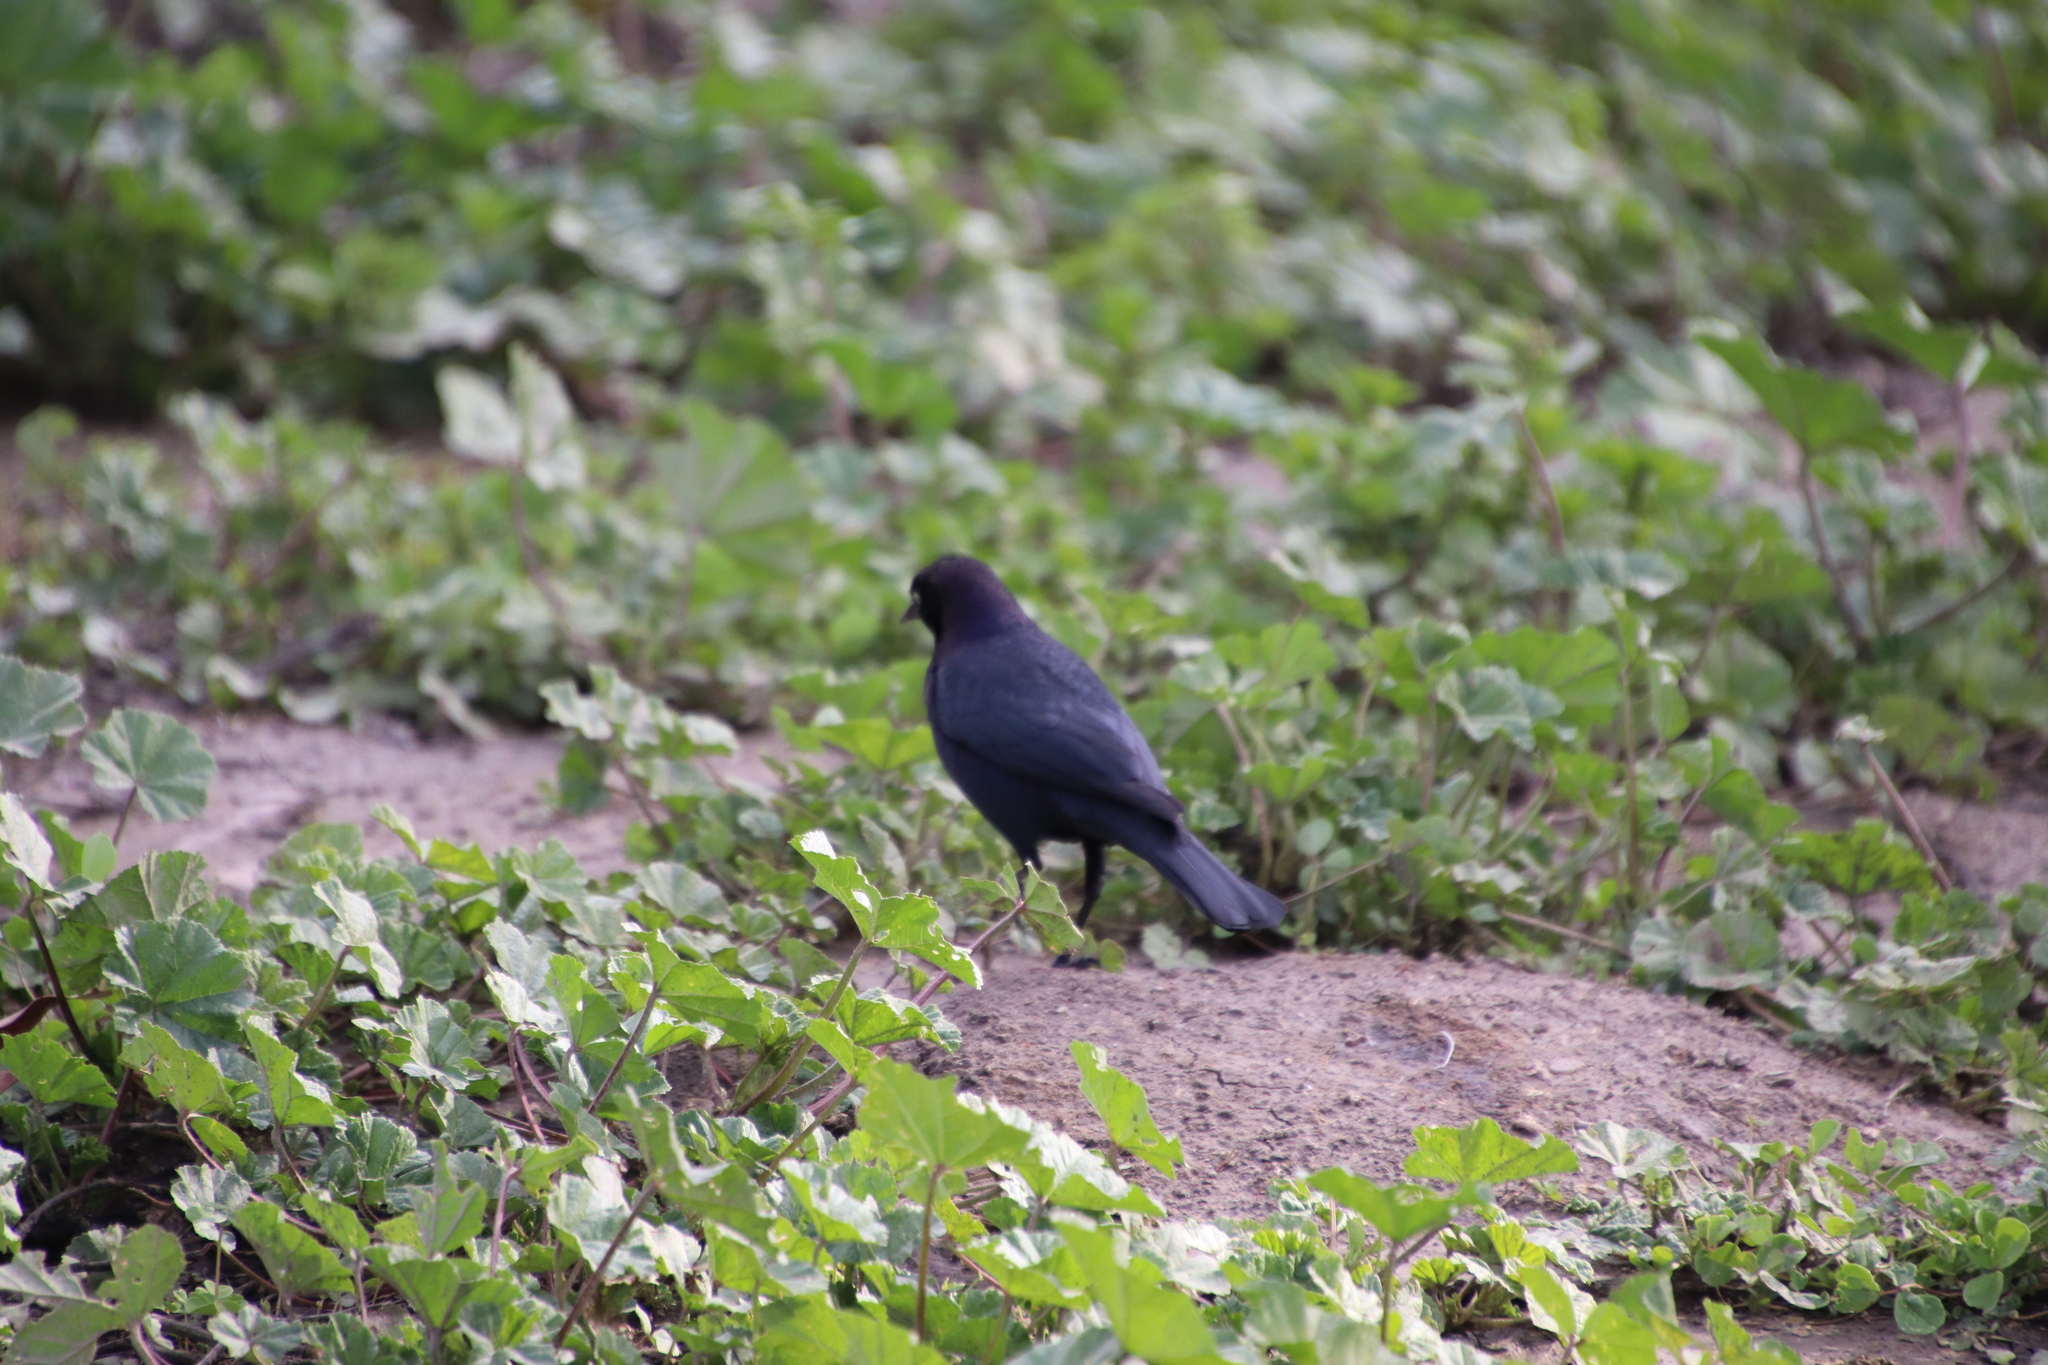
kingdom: Animalia
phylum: Chordata
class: Aves
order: Passeriformes
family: Icteridae
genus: Euphagus
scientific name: Euphagus cyanocephalus
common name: Brewer's blackbird
